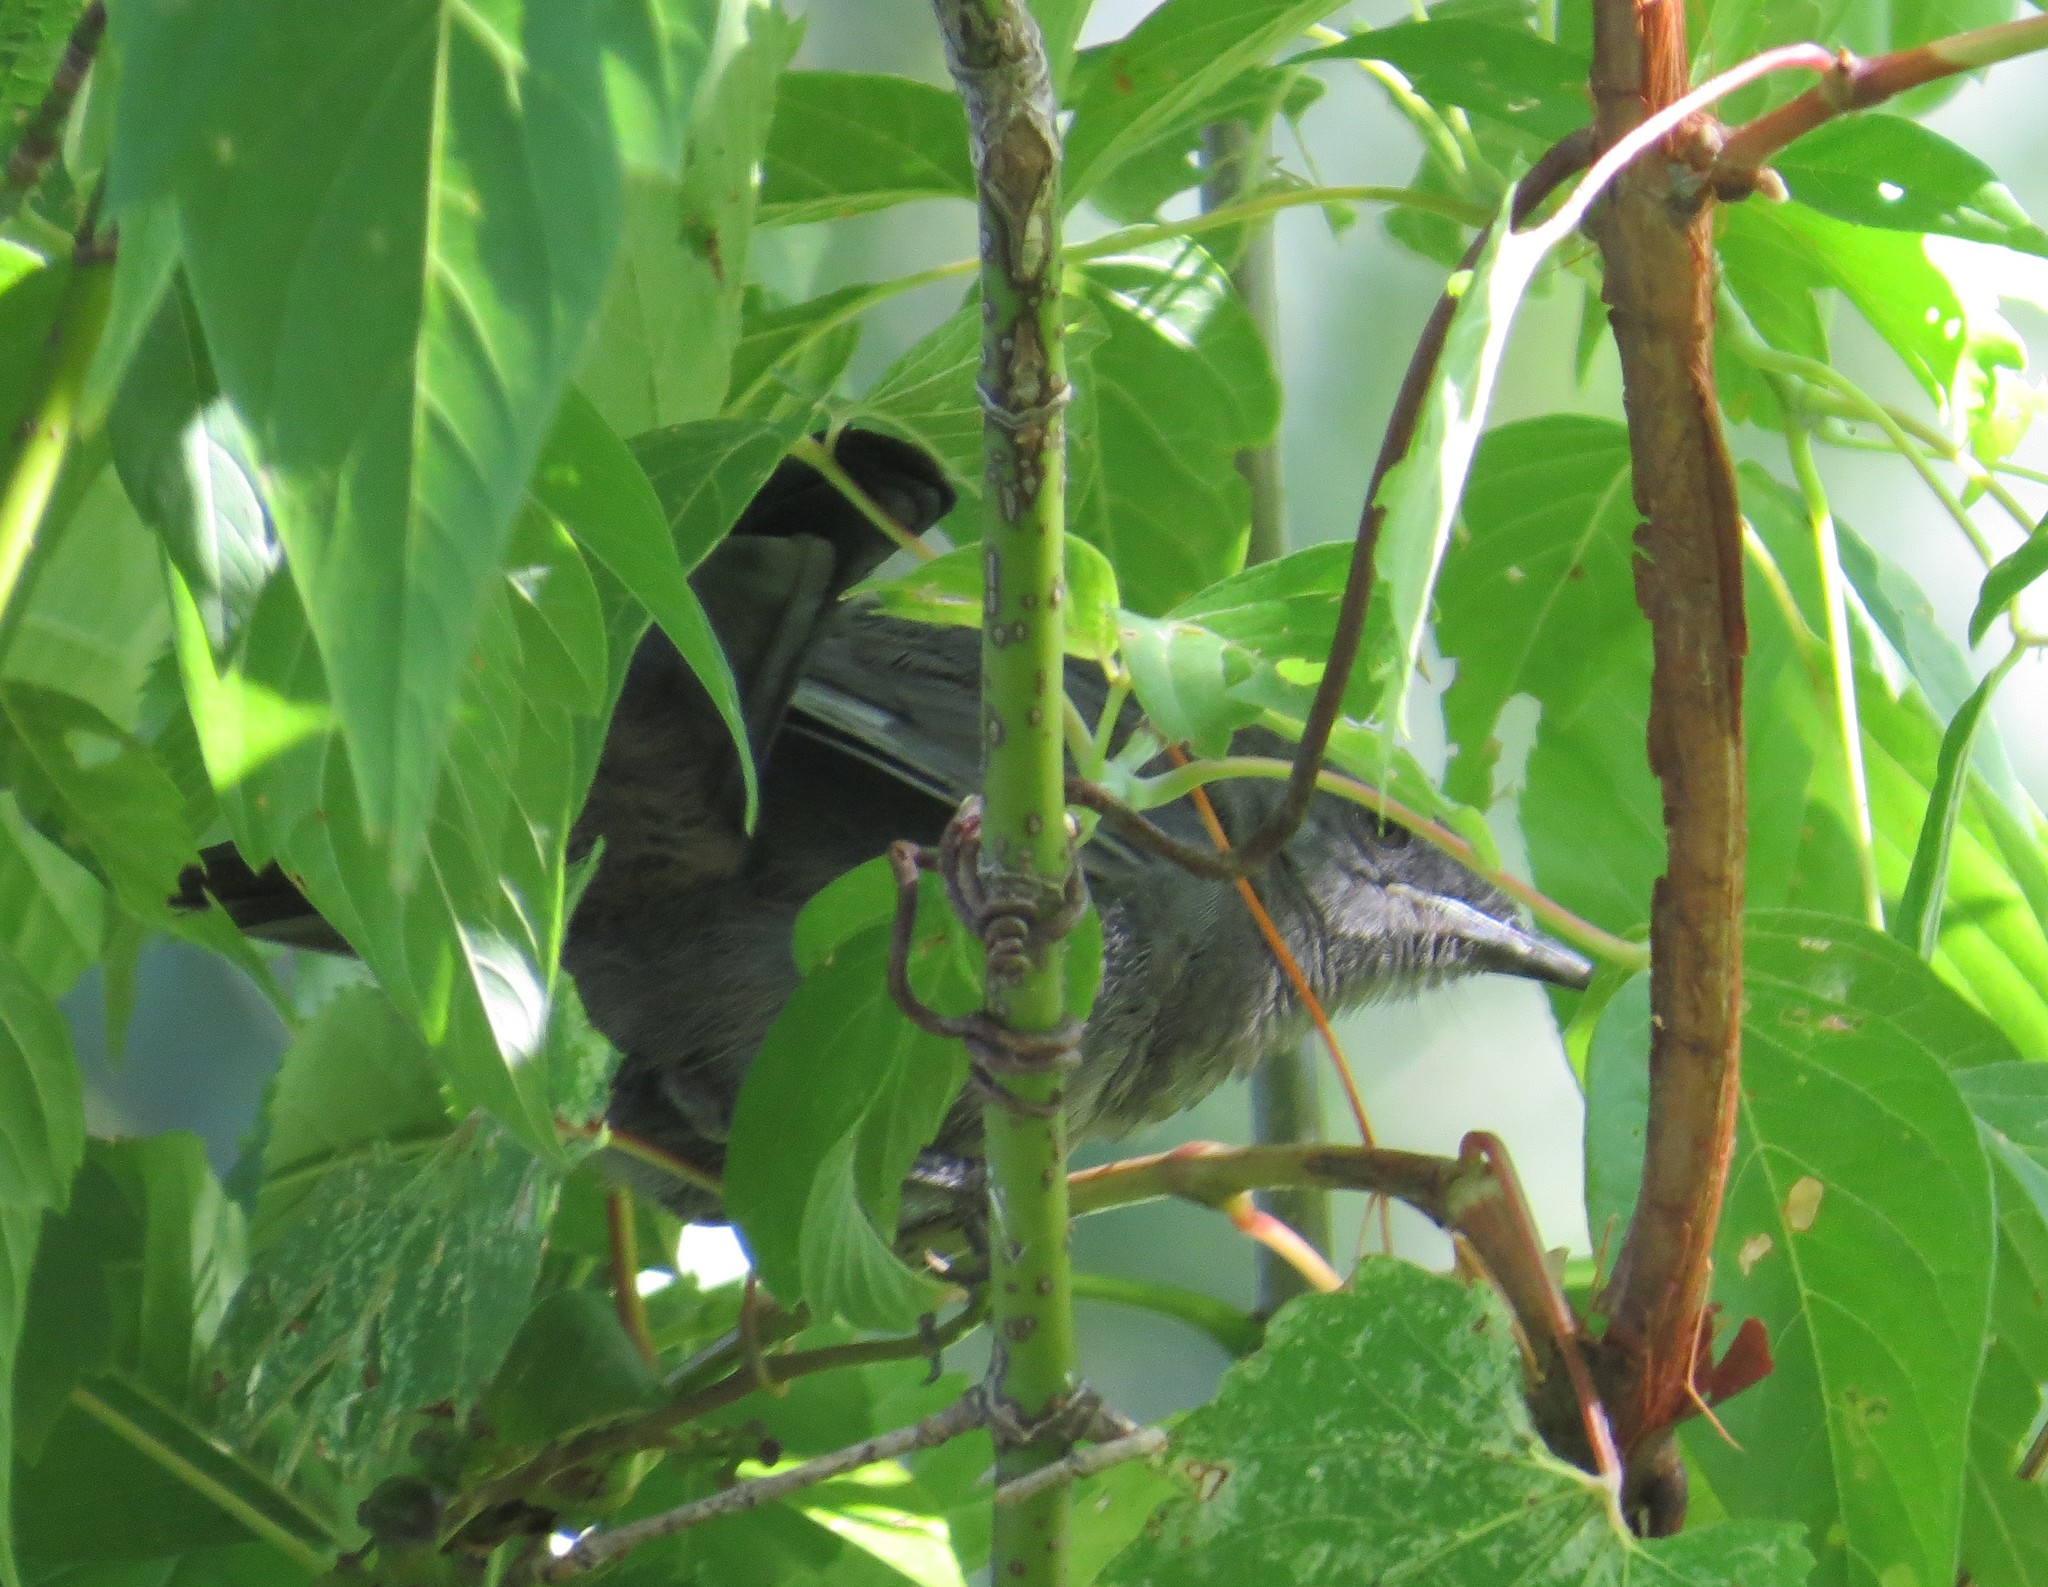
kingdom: Animalia
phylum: Chordata
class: Aves
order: Passeriformes
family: Mimidae
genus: Dumetella
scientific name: Dumetella carolinensis
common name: Gray catbird
